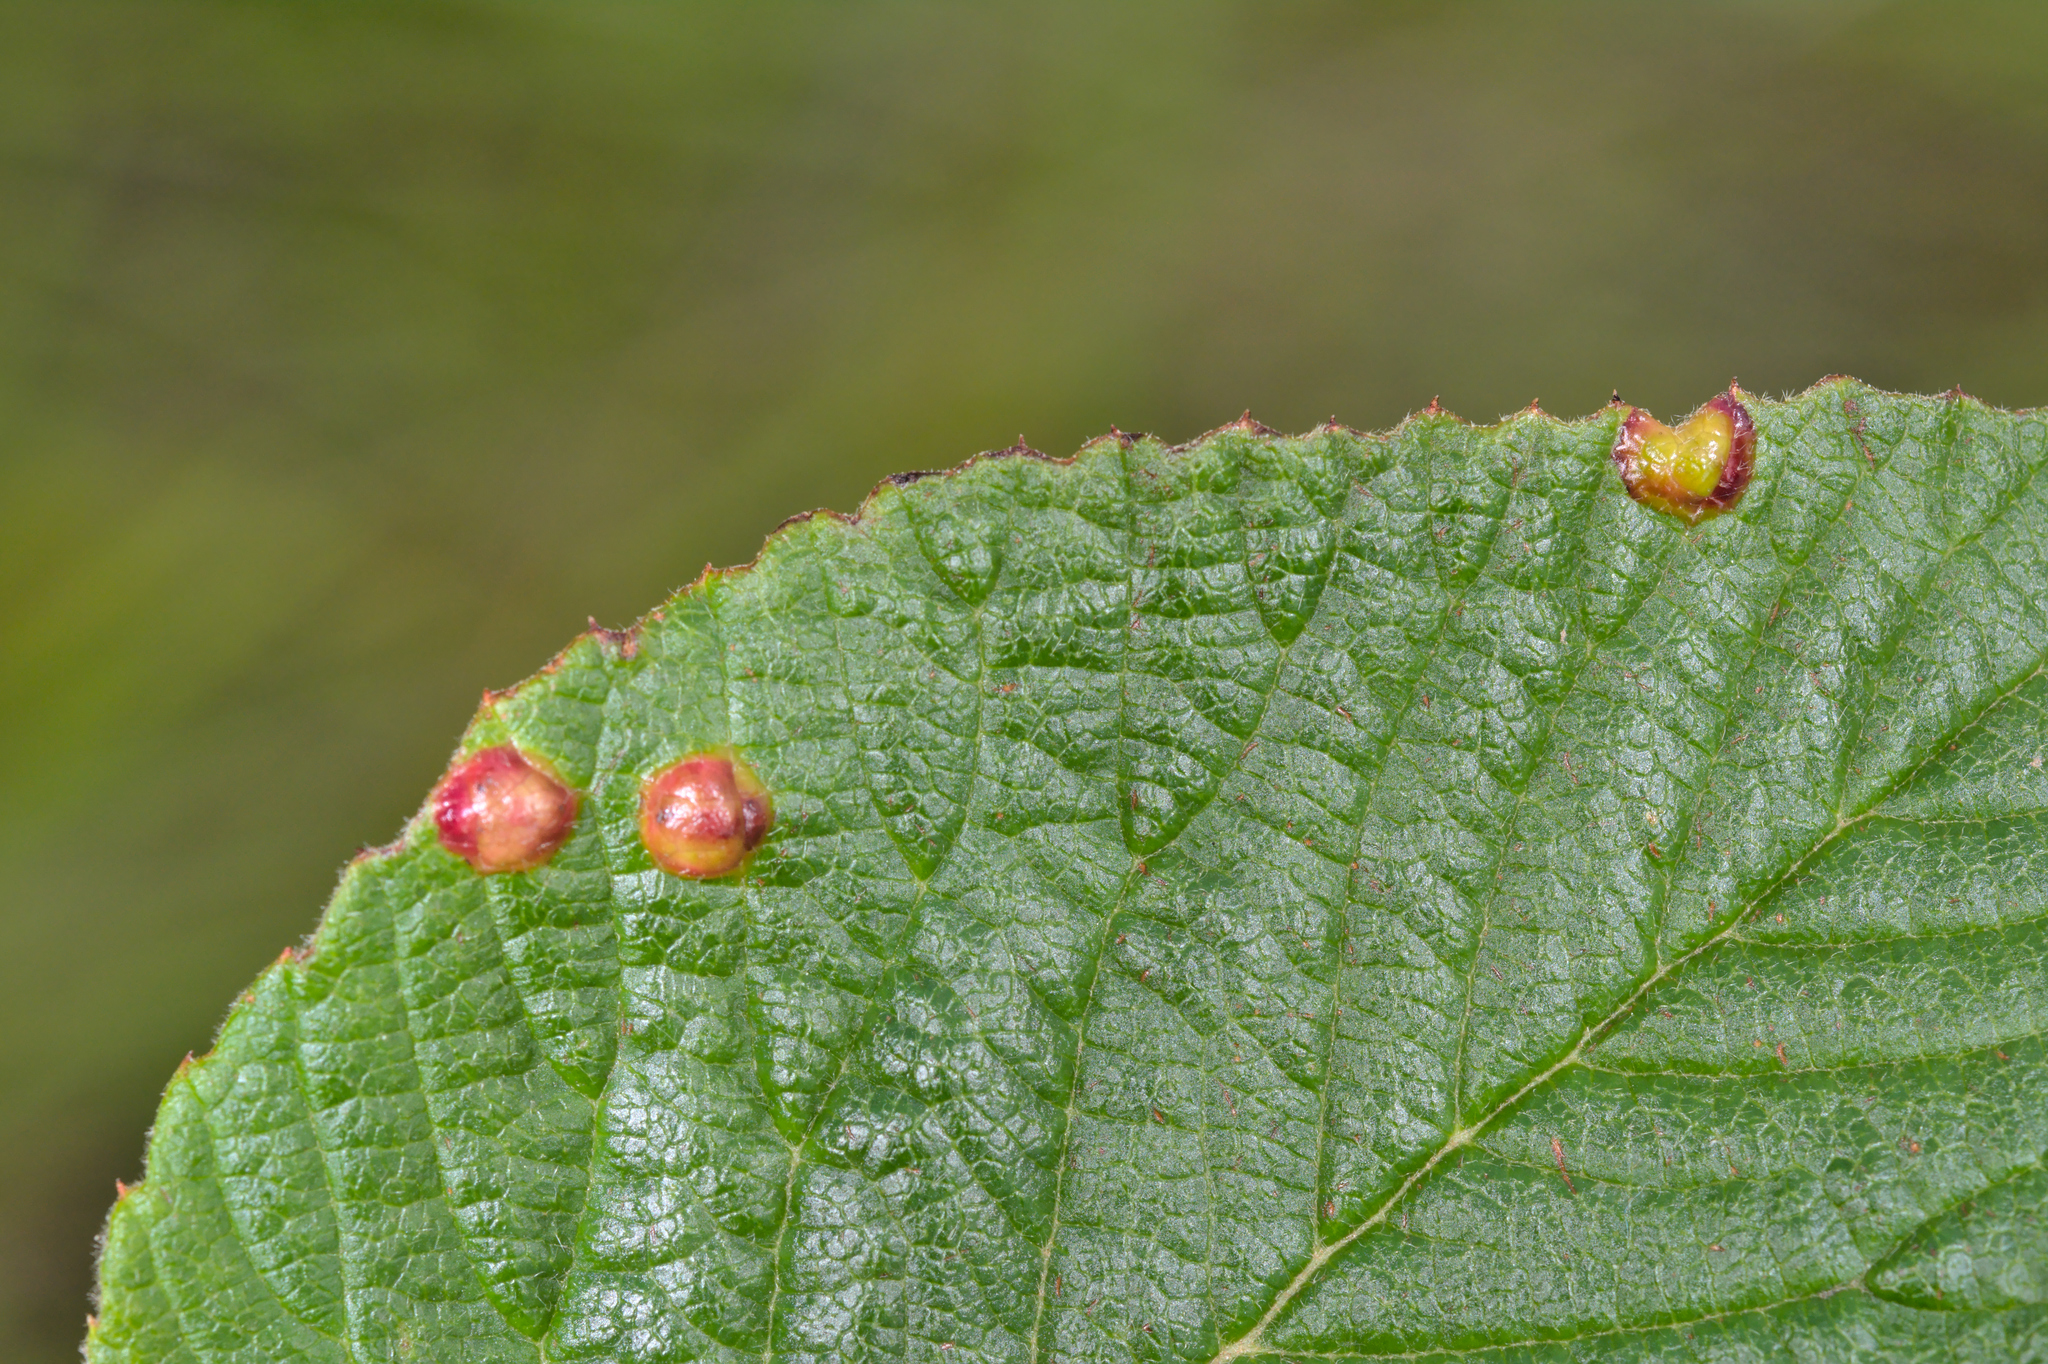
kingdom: Animalia
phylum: Arthropoda
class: Insecta
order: Diptera
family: Cecidomyiidae
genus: Sackenomyia
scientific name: Sackenomyia reaumurii
